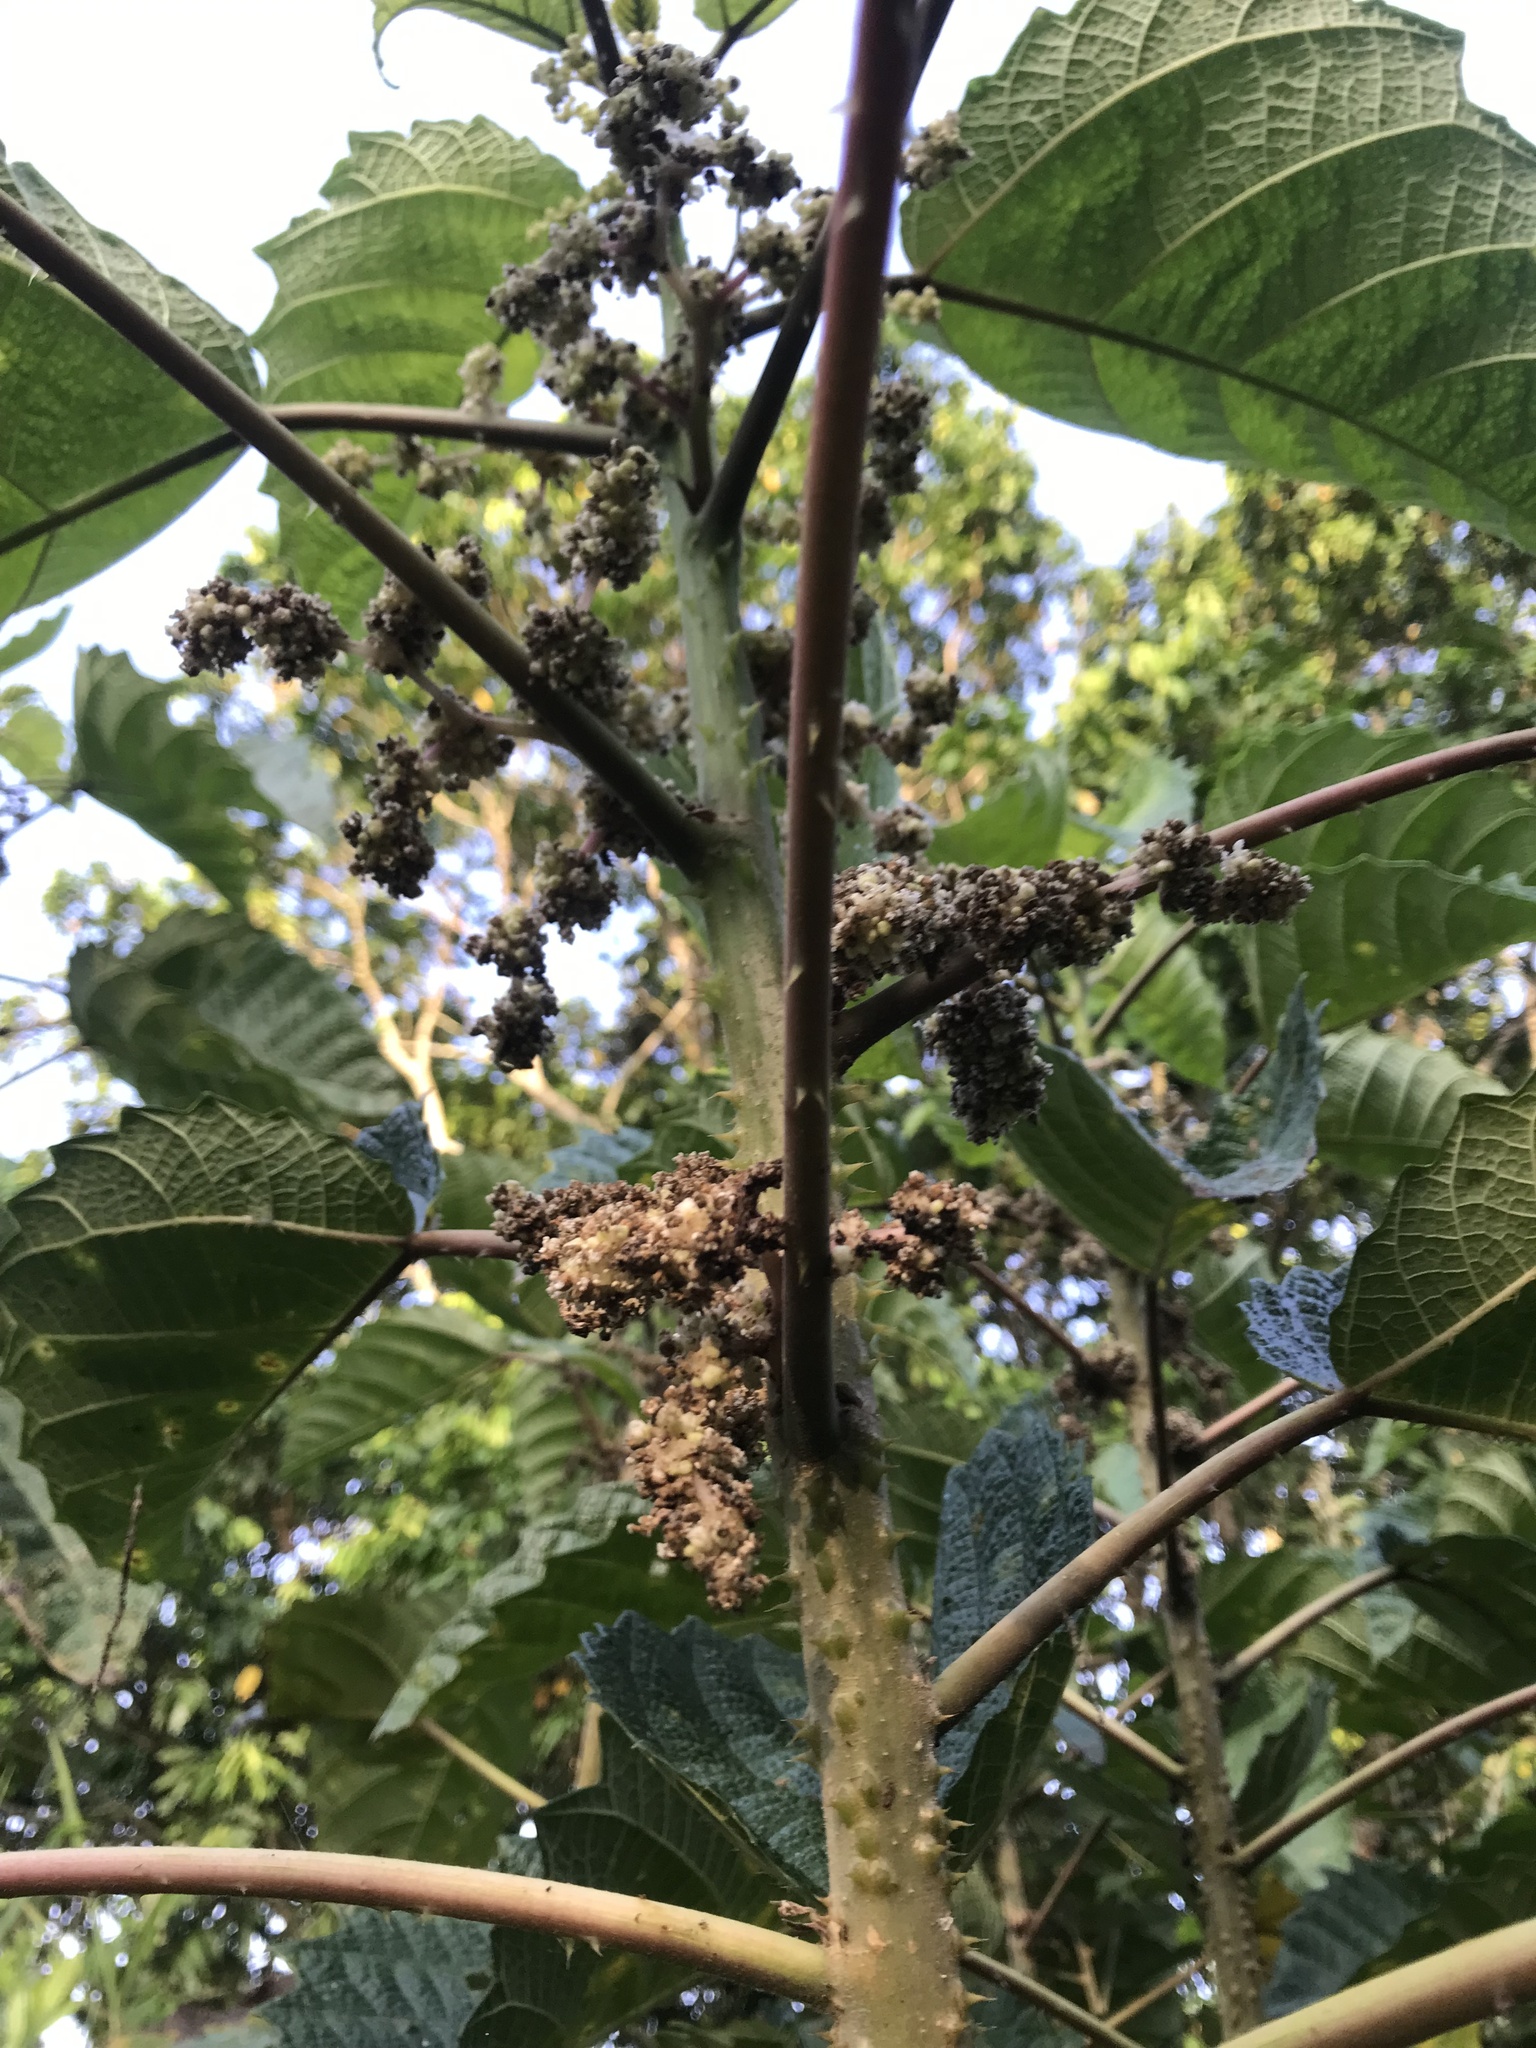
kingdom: Plantae
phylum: Tracheophyta
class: Magnoliopsida
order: Rosales
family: Urticaceae
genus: Urera
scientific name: Urera baccifera
